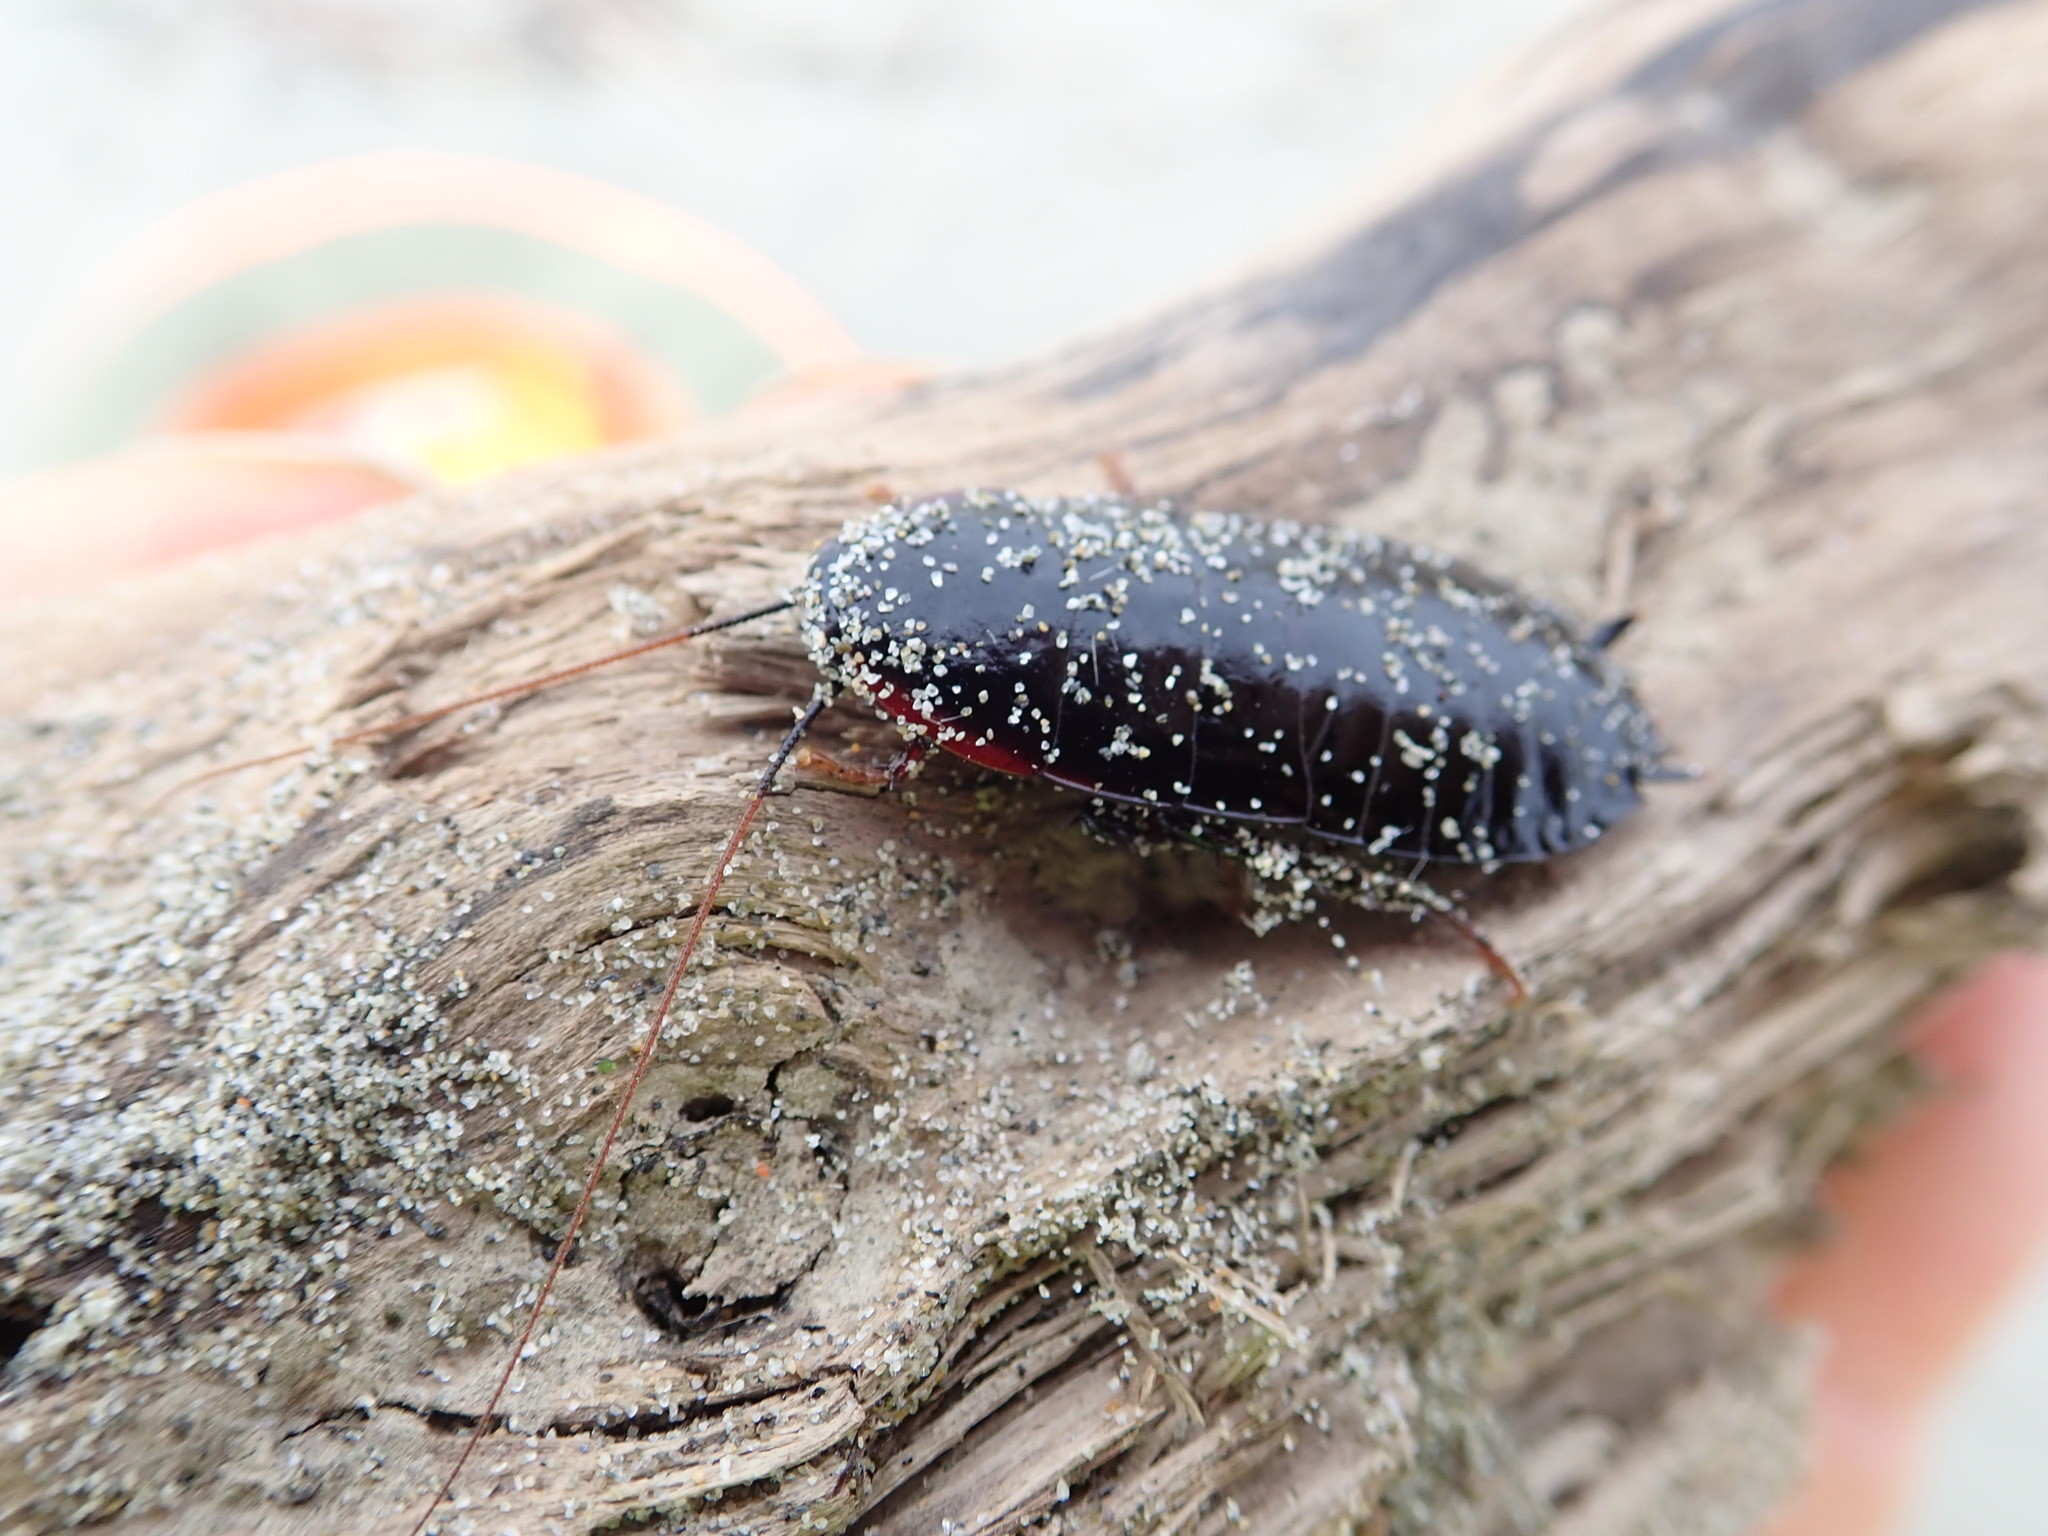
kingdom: Animalia
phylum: Arthropoda
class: Insecta
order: Blattodea
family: Blattidae
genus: Maoriblatta
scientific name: Maoriblatta novaeseelandiae
